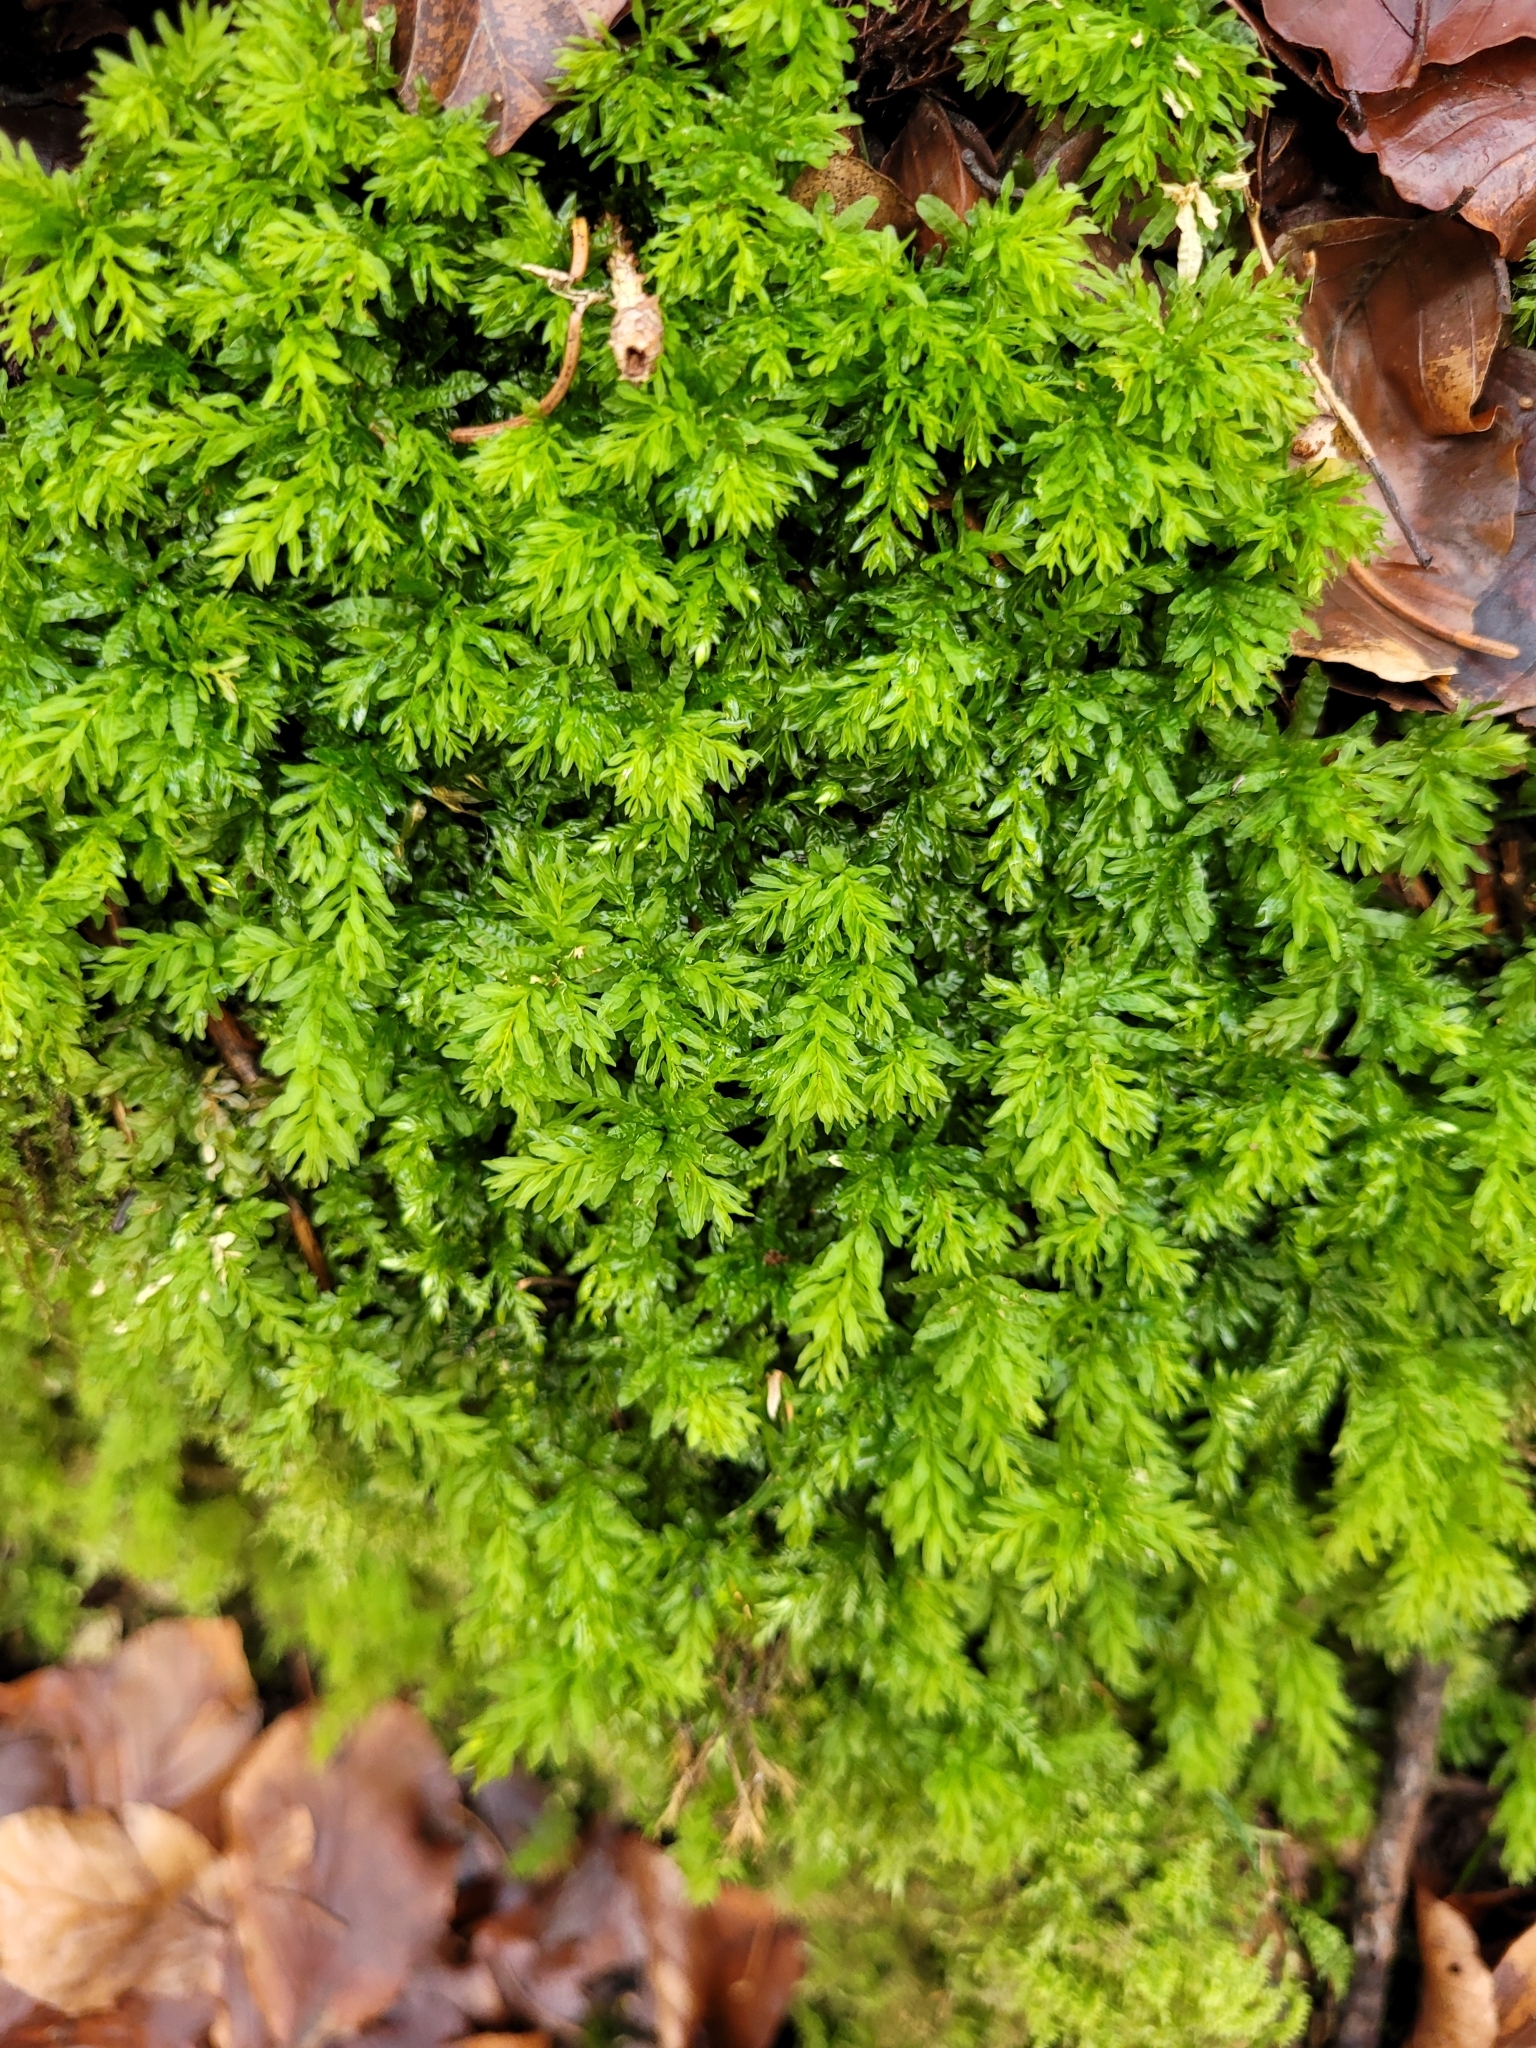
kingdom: Plantae
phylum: Bryophyta
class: Bryopsida
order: Bryales
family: Mniaceae
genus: Plagiomnium
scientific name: Plagiomnium undulatum
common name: Hart's-tongue thyme-moss
